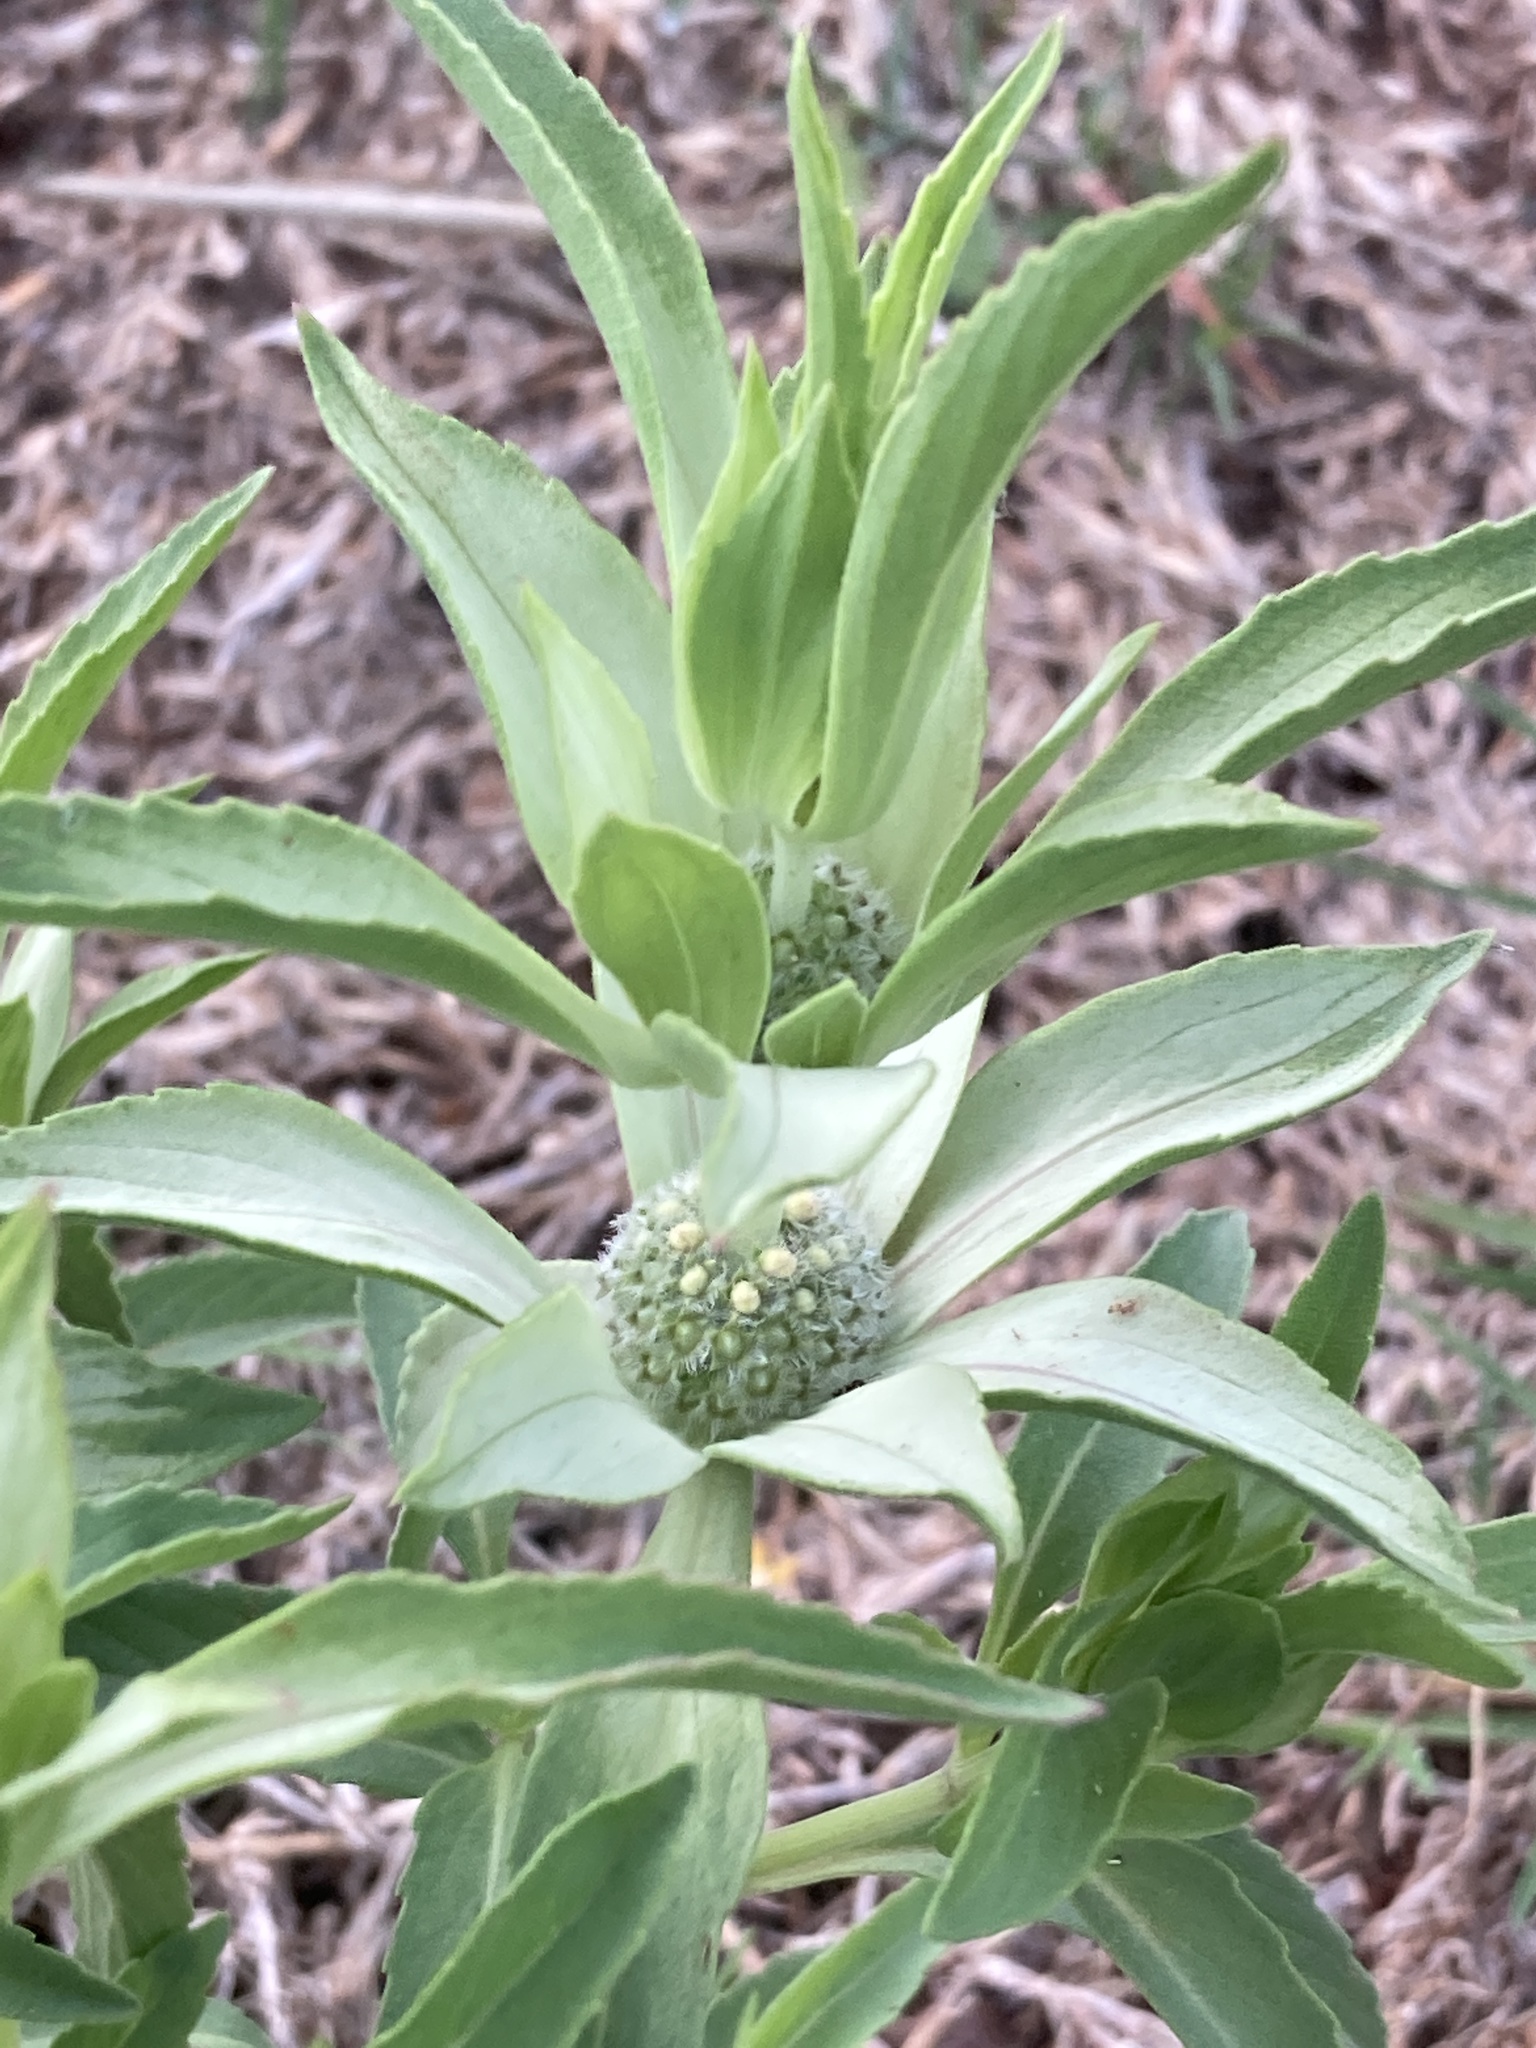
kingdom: Plantae
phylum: Tracheophyta
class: Magnoliopsida
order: Lamiales
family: Lamiaceae
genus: Monarda
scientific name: Monarda punctata
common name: Dotted monarda
